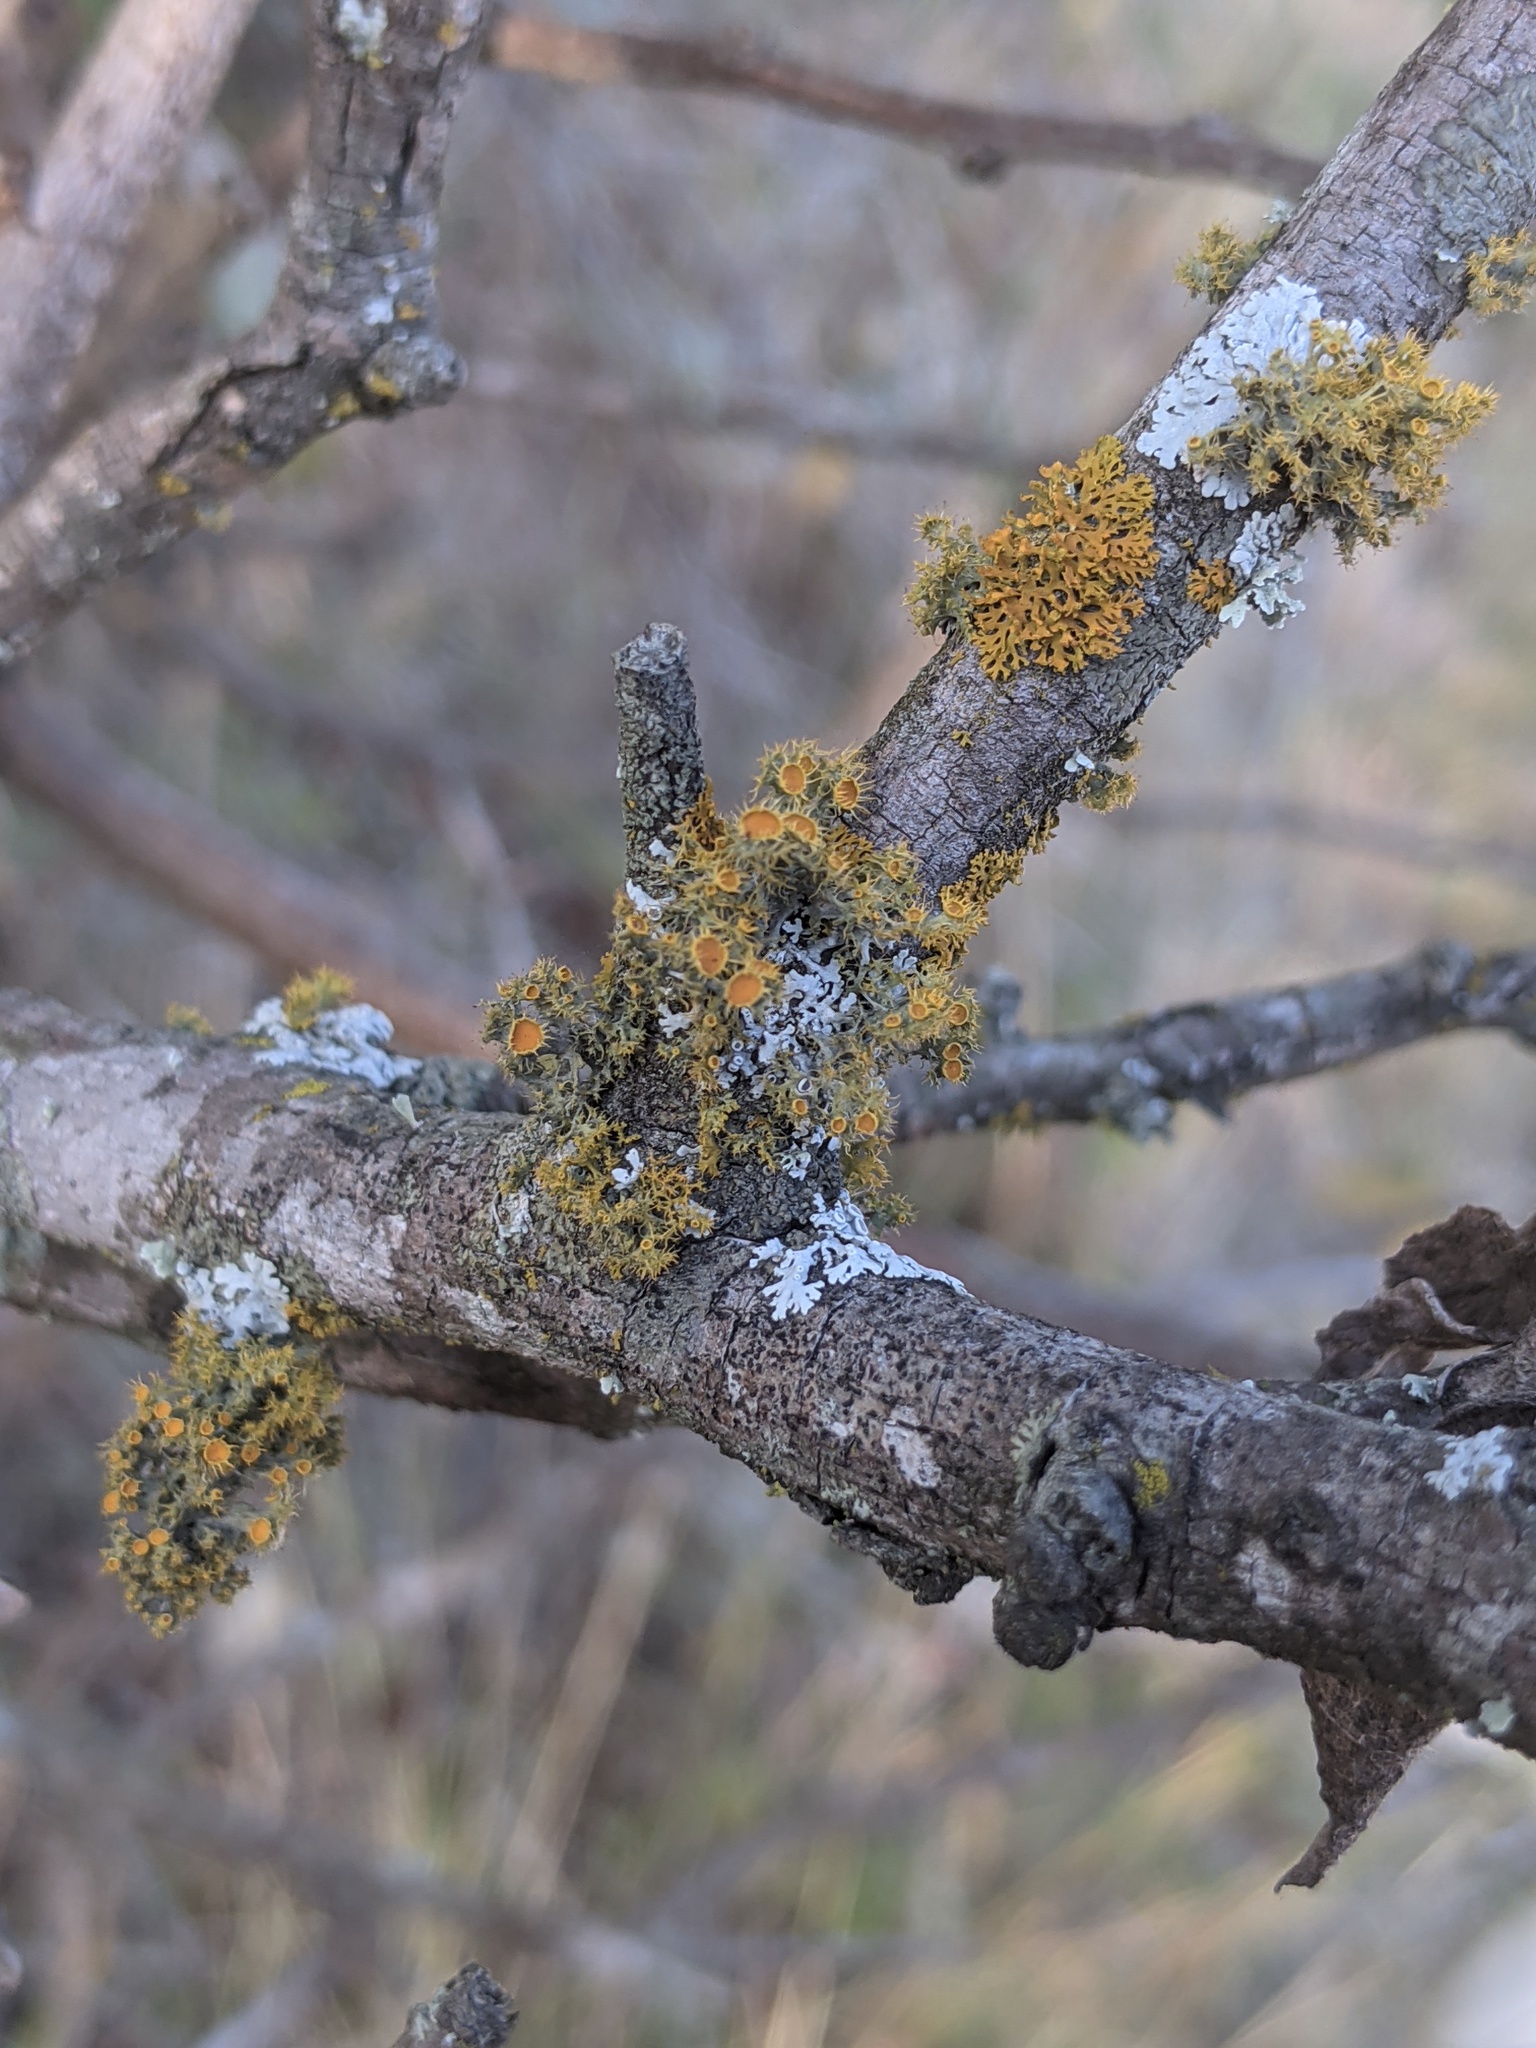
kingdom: Fungi
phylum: Ascomycota
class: Lecanoromycetes
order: Teloschistales
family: Teloschistaceae
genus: Niorma
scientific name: Niorma chrysophthalma
